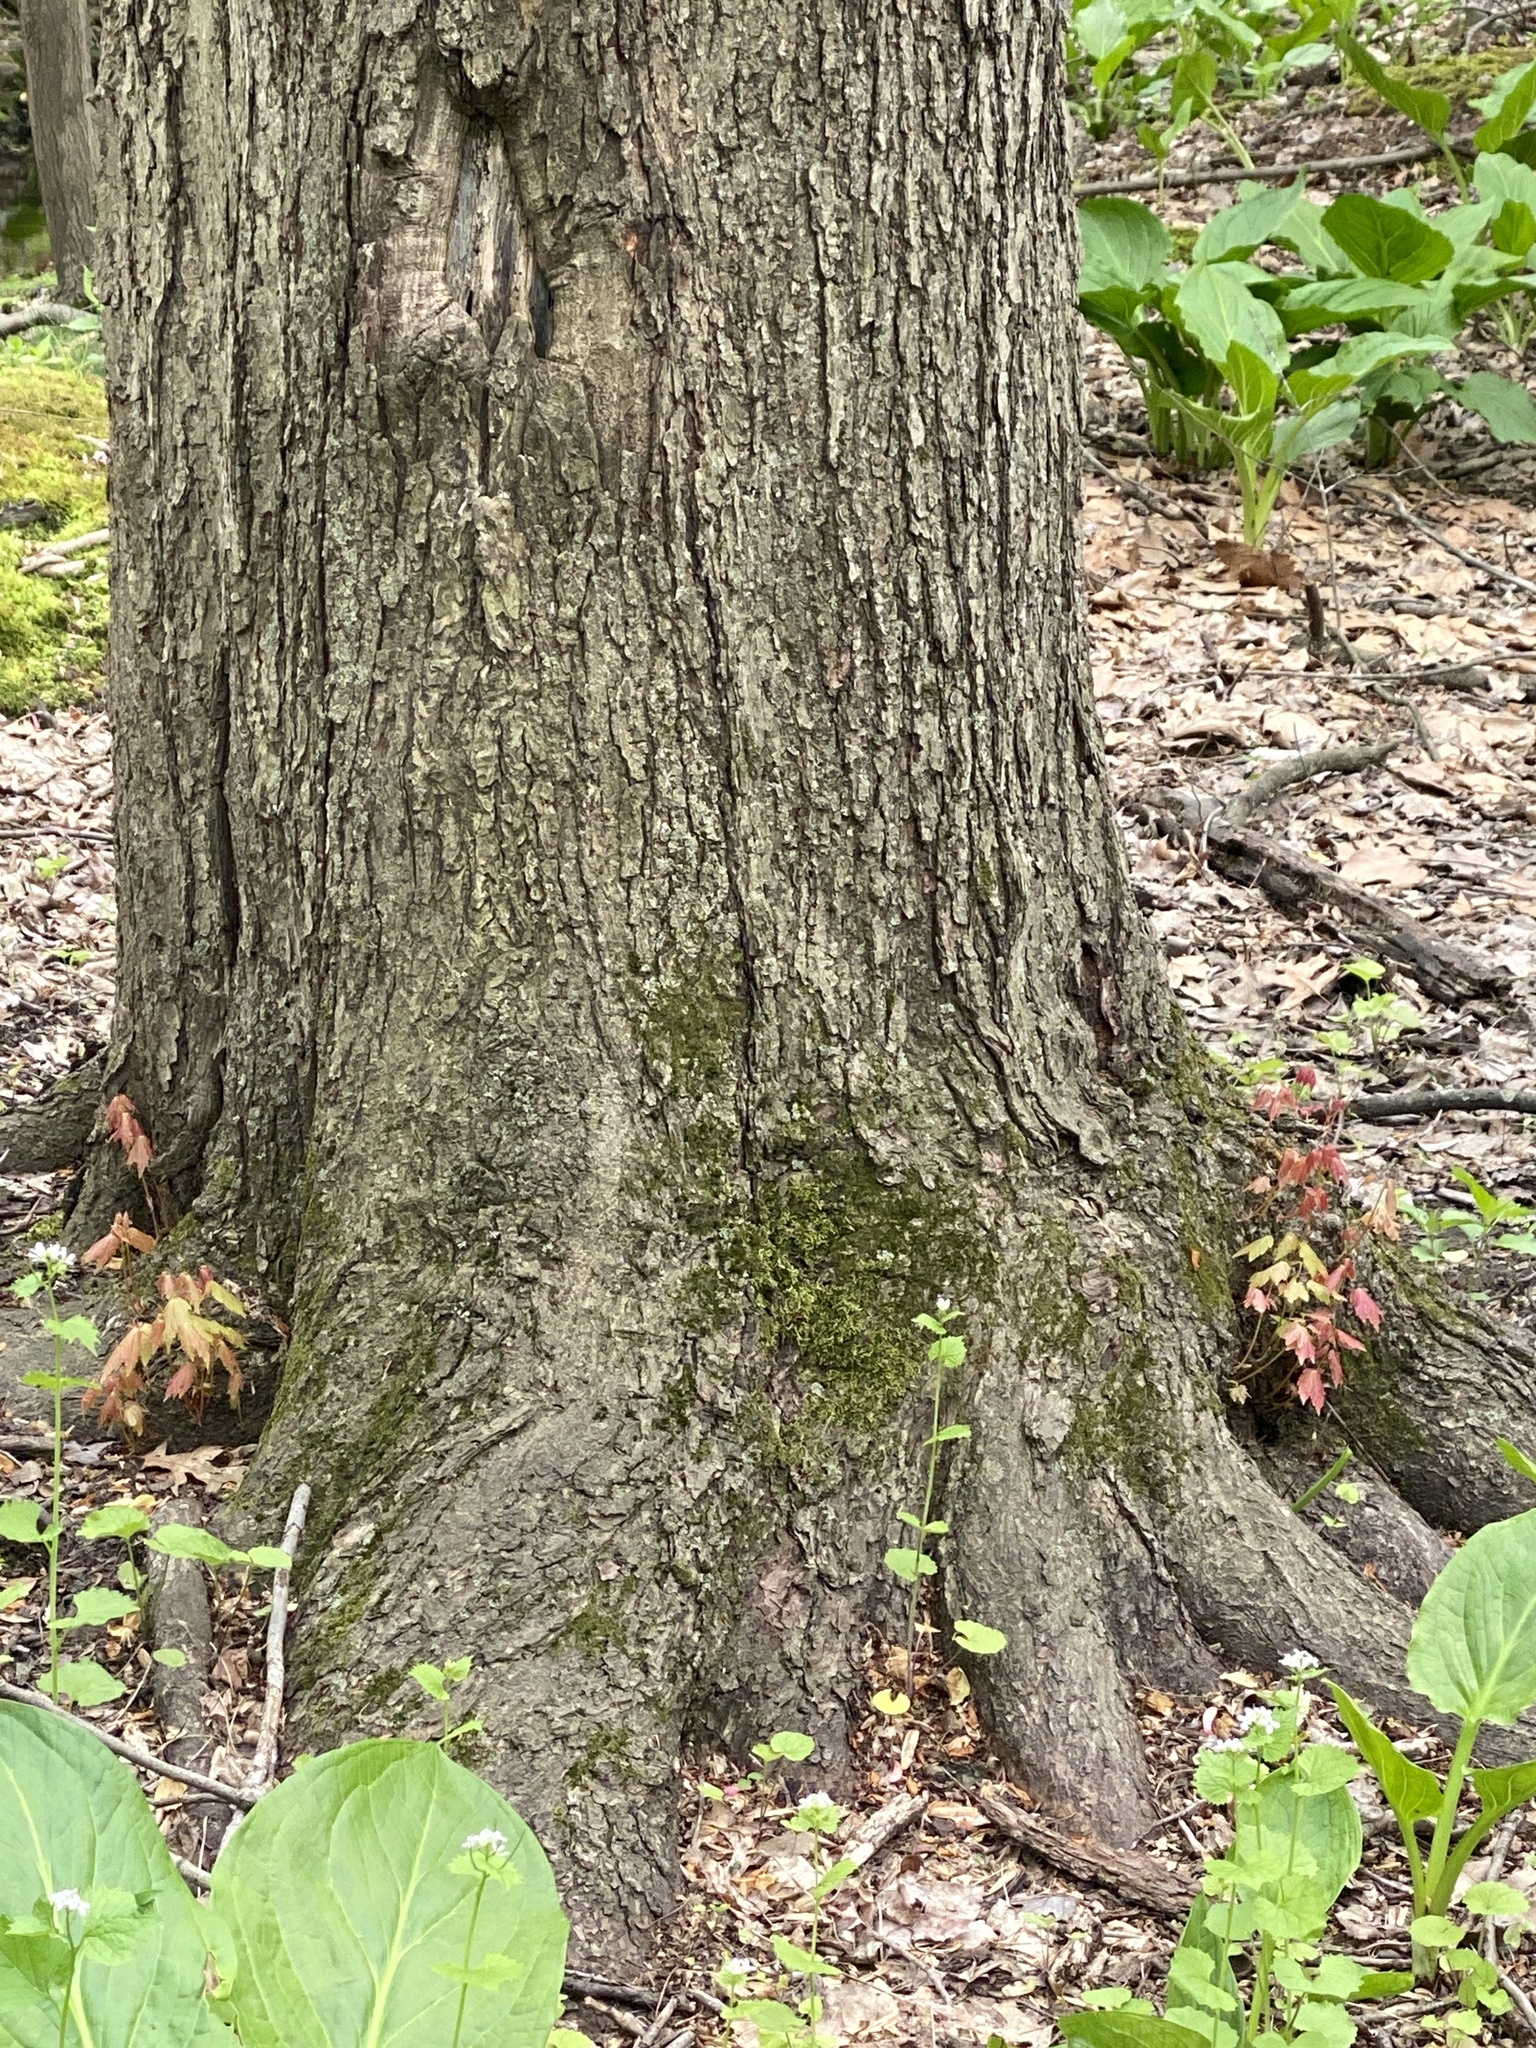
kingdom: Plantae
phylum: Tracheophyta
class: Magnoliopsida
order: Sapindales
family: Sapindaceae
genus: Acer
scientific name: Acer rubrum
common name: Red maple
